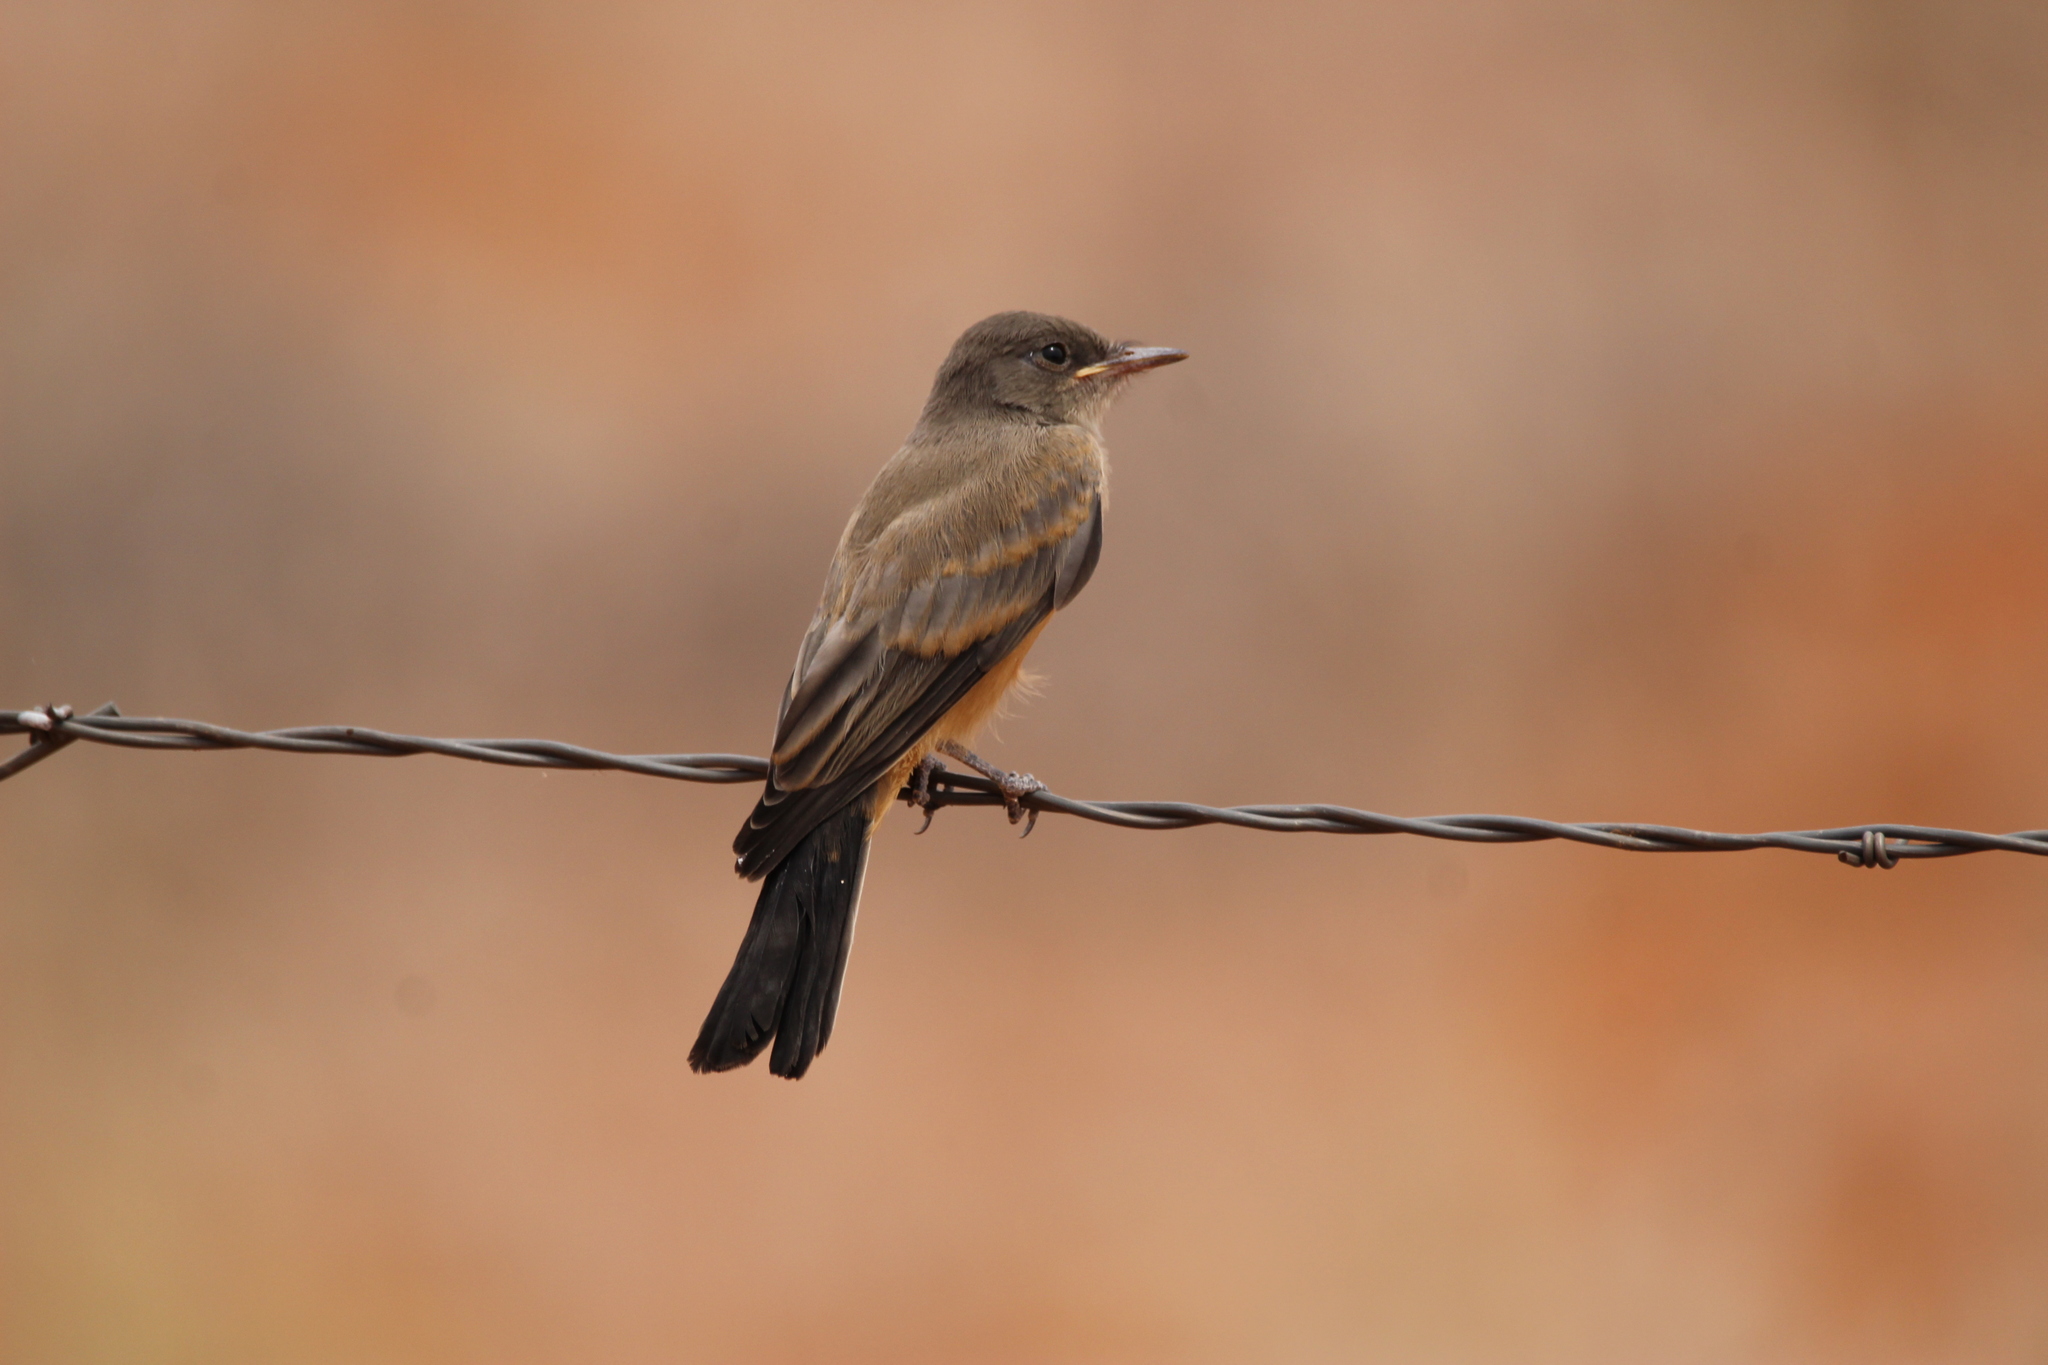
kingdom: Animalia
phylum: Chordata
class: Aves
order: Passeriformes
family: Tyrannidae
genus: Sayornis
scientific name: Sayornis saya
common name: Say's phoebe
